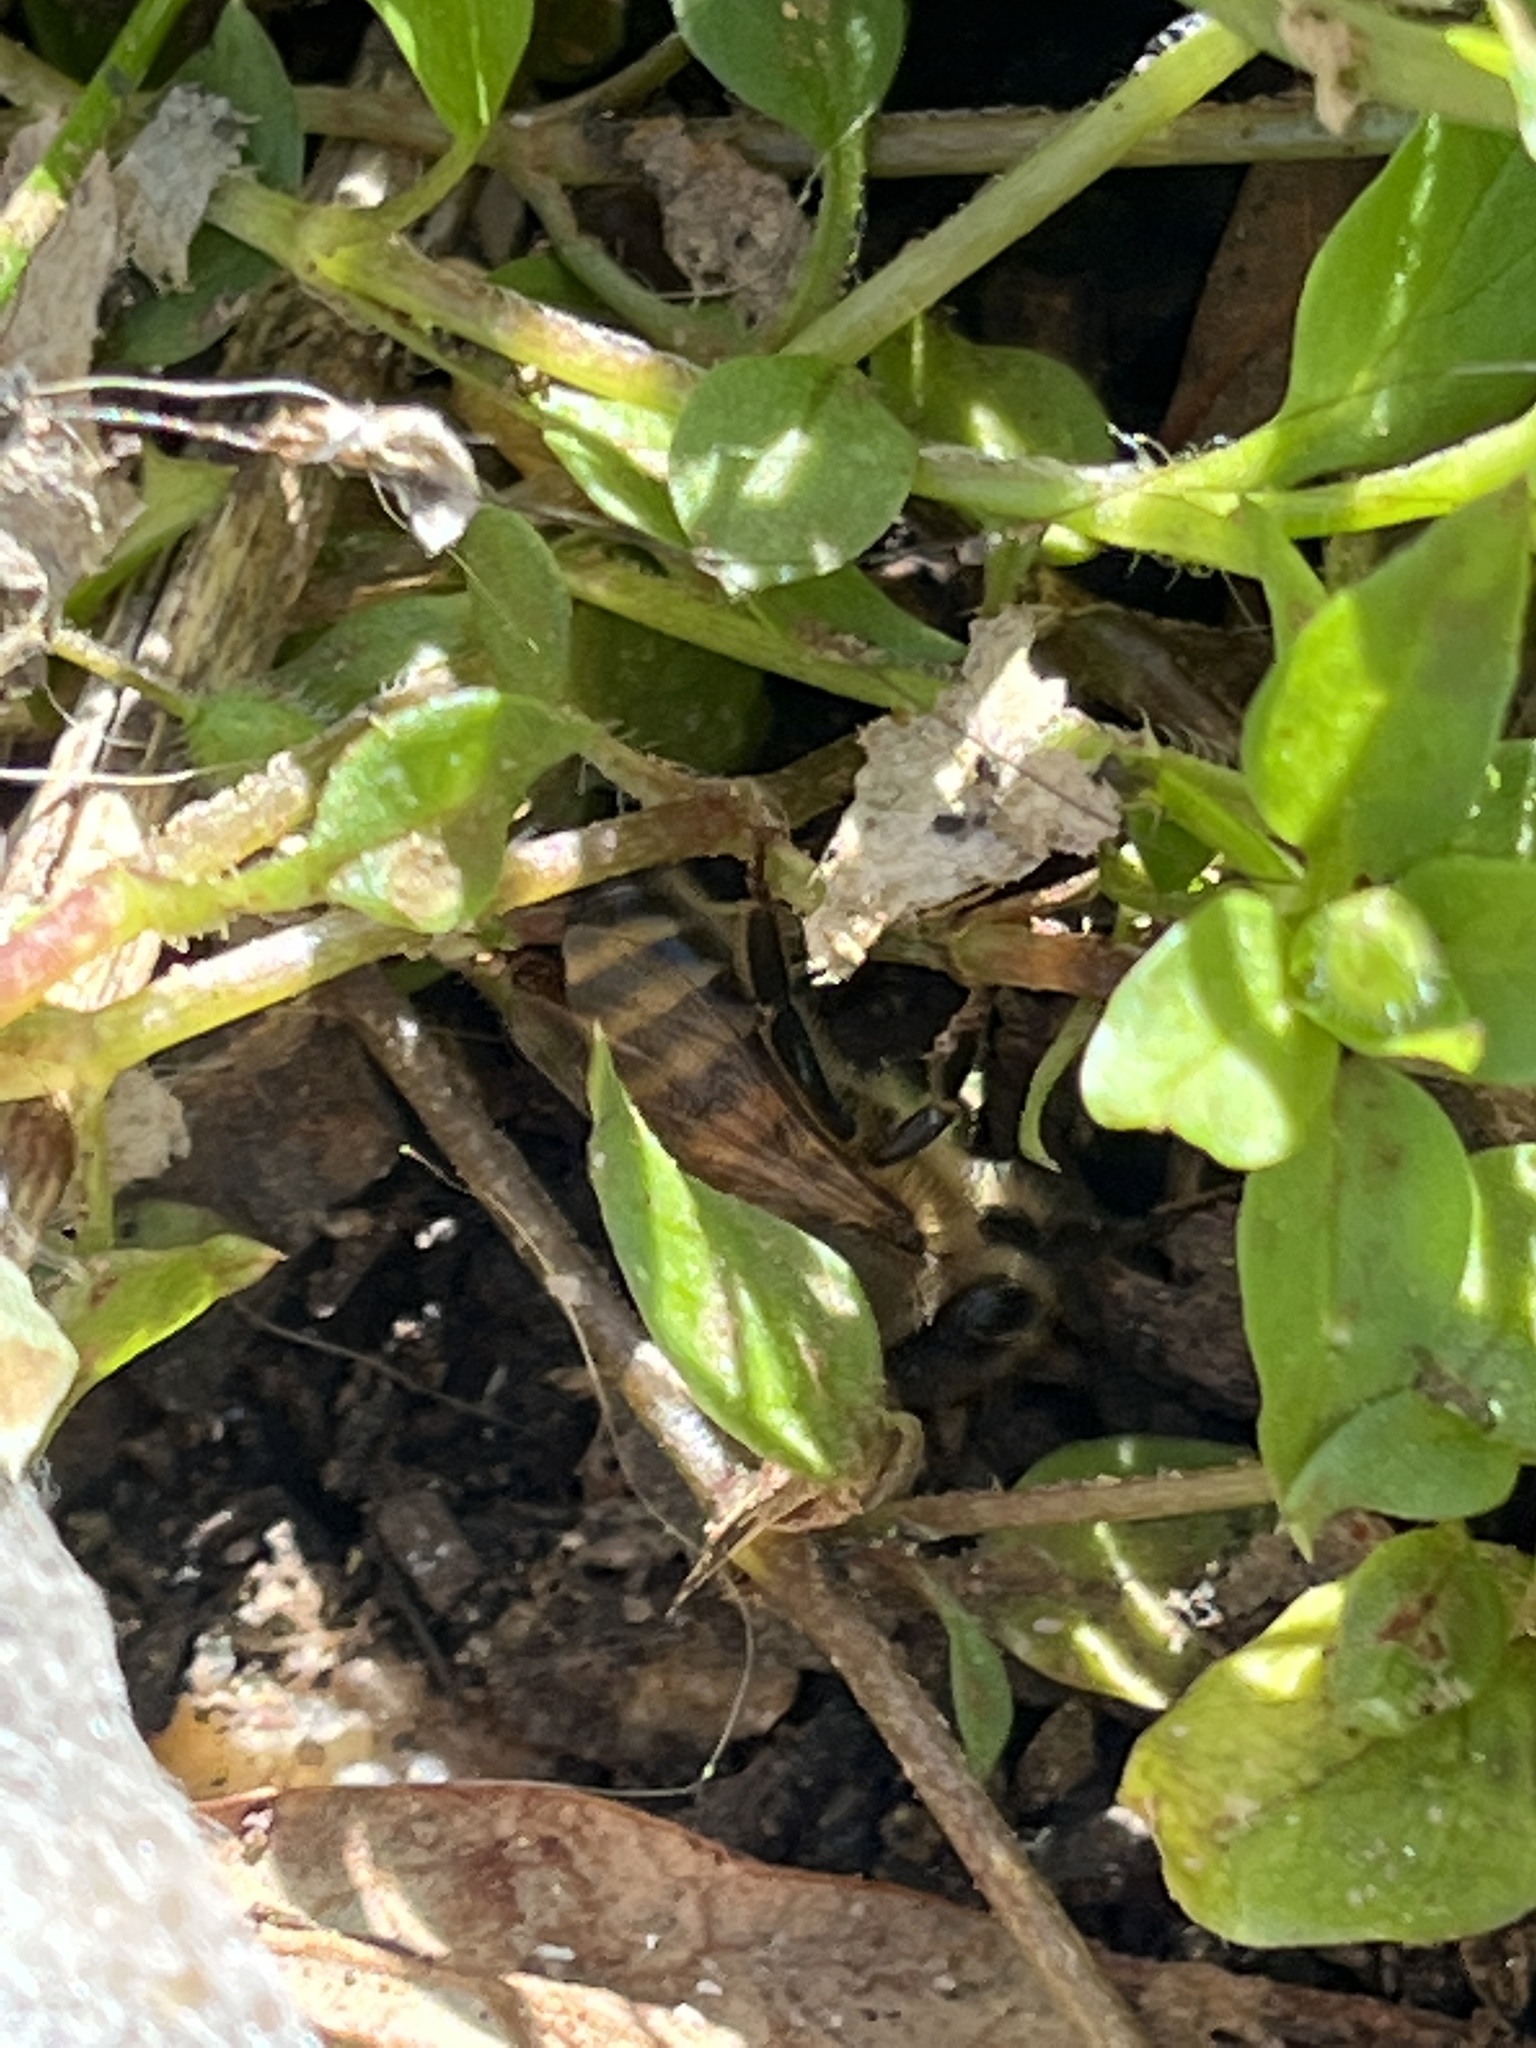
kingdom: Animalia
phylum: Arthropoda
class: Insecta
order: Hymenoptera
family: Apidae
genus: Apis
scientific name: Apis mellifera
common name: Honey bee
